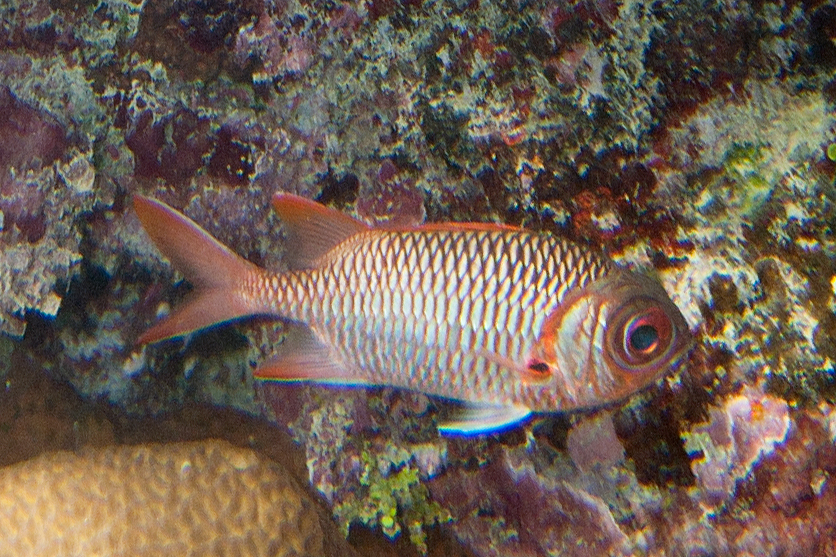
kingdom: Animalia
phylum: Chordata
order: Beryciformes
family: Holocentridae
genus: Myripristis
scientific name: Myripristis violacea
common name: Lattice soldierfish
